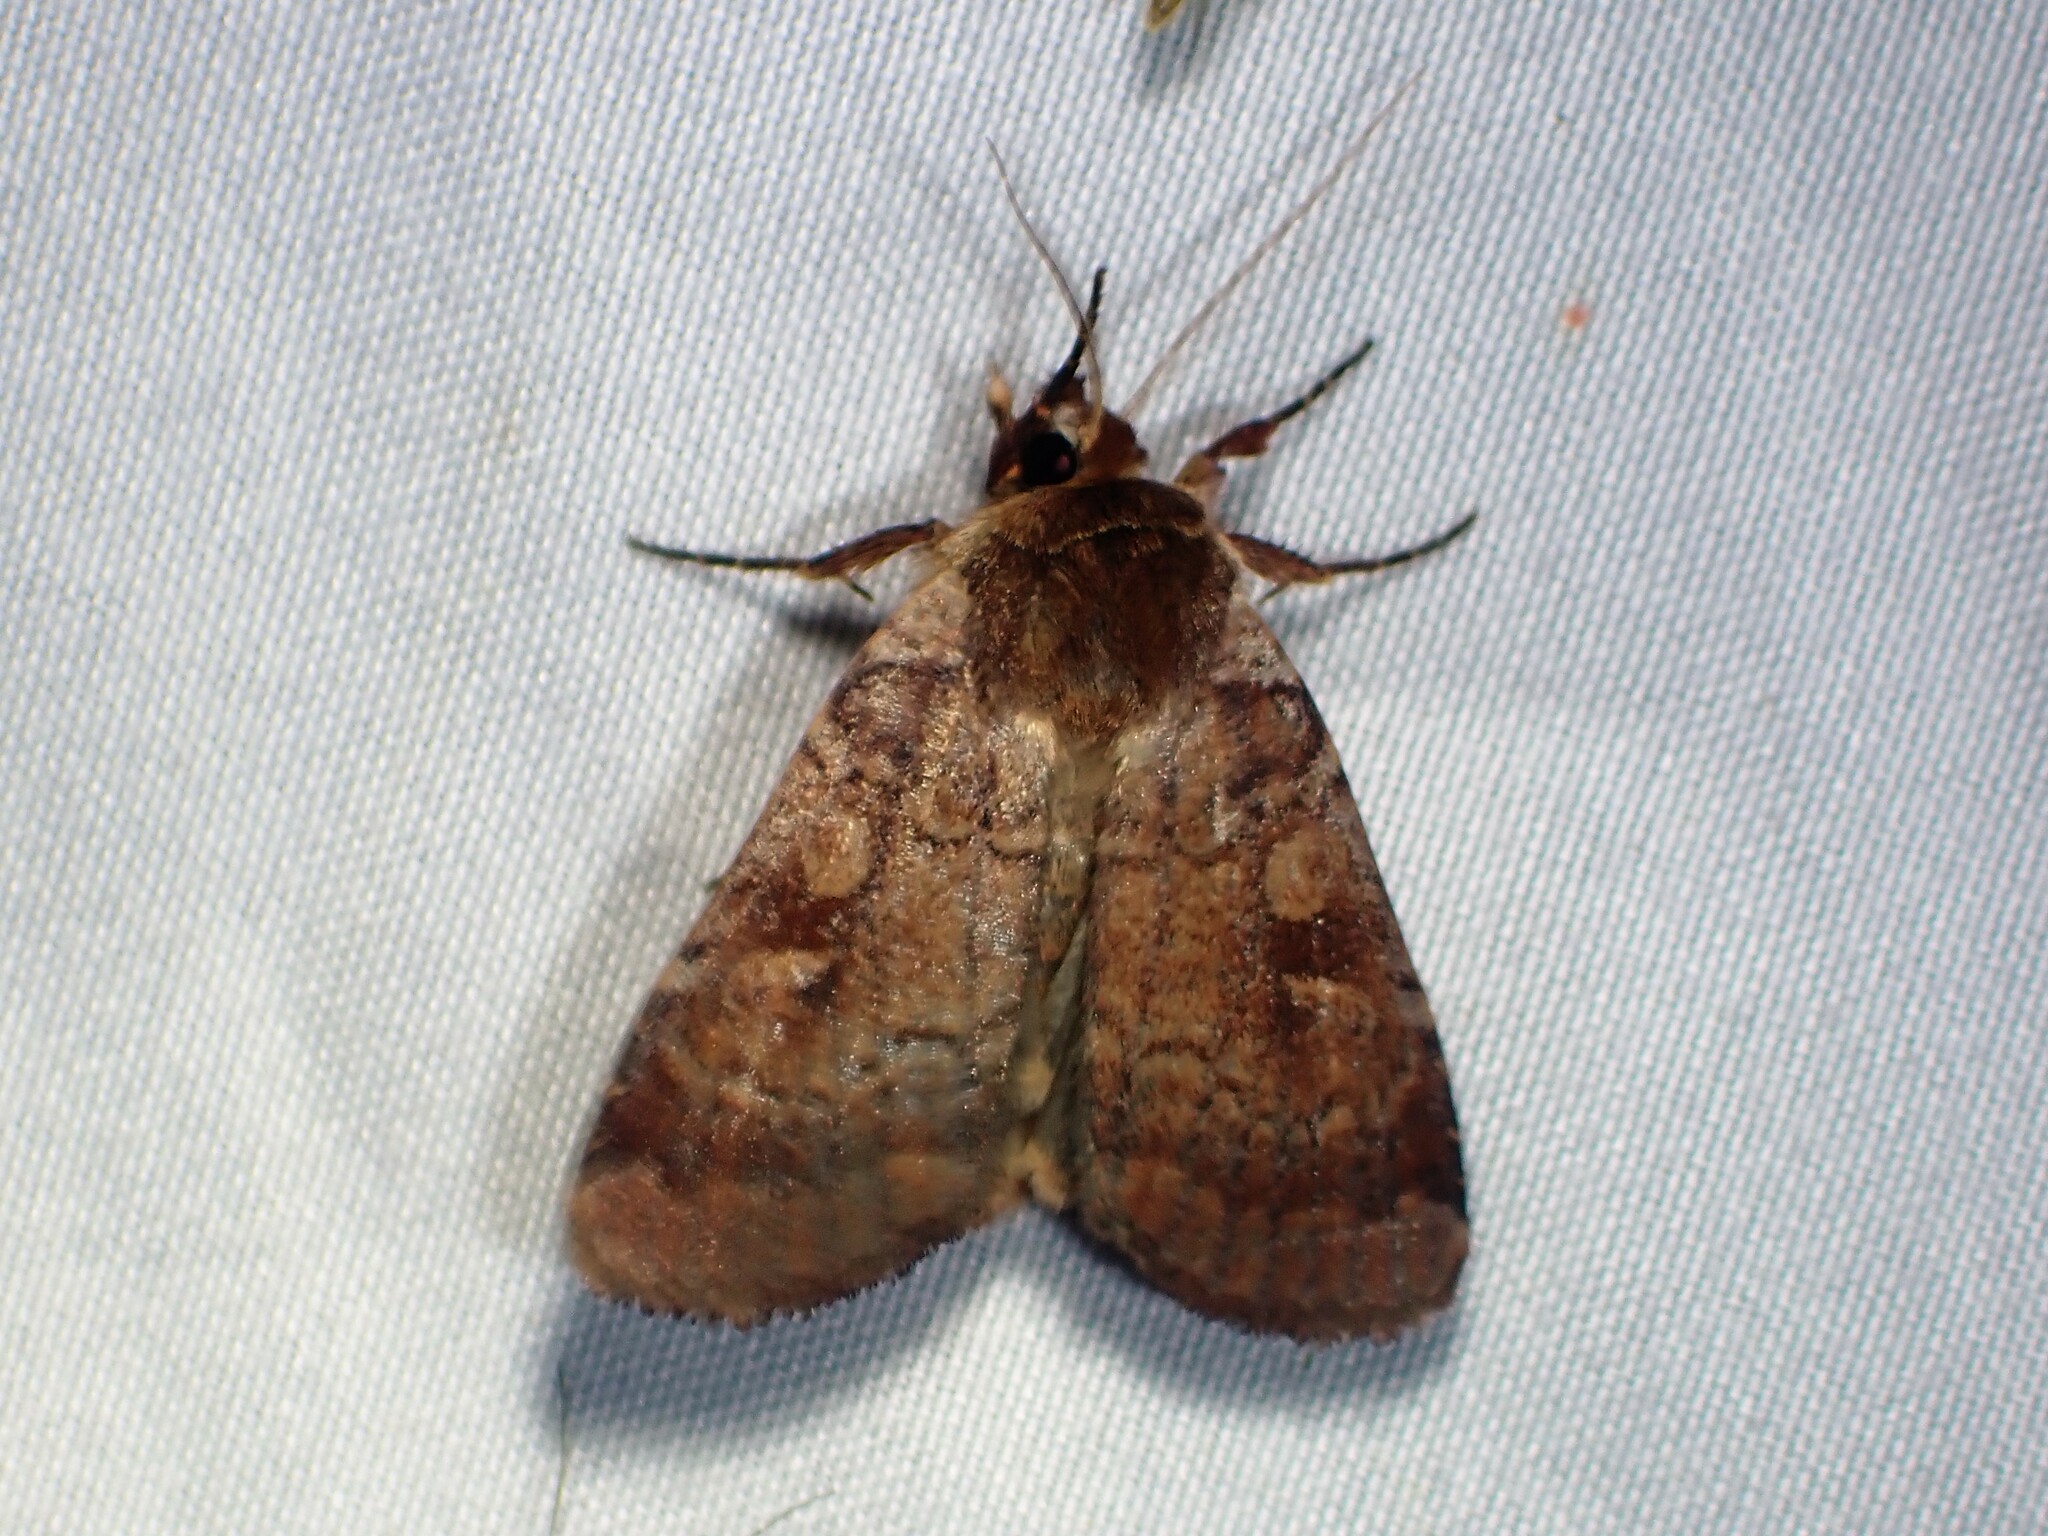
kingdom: Animalia
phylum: Arthropoda
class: Insecta
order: Lepidoptera
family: Noctuidae
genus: Lycophotia
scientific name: Lycophotia phyllophora
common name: Lycophotia moth
